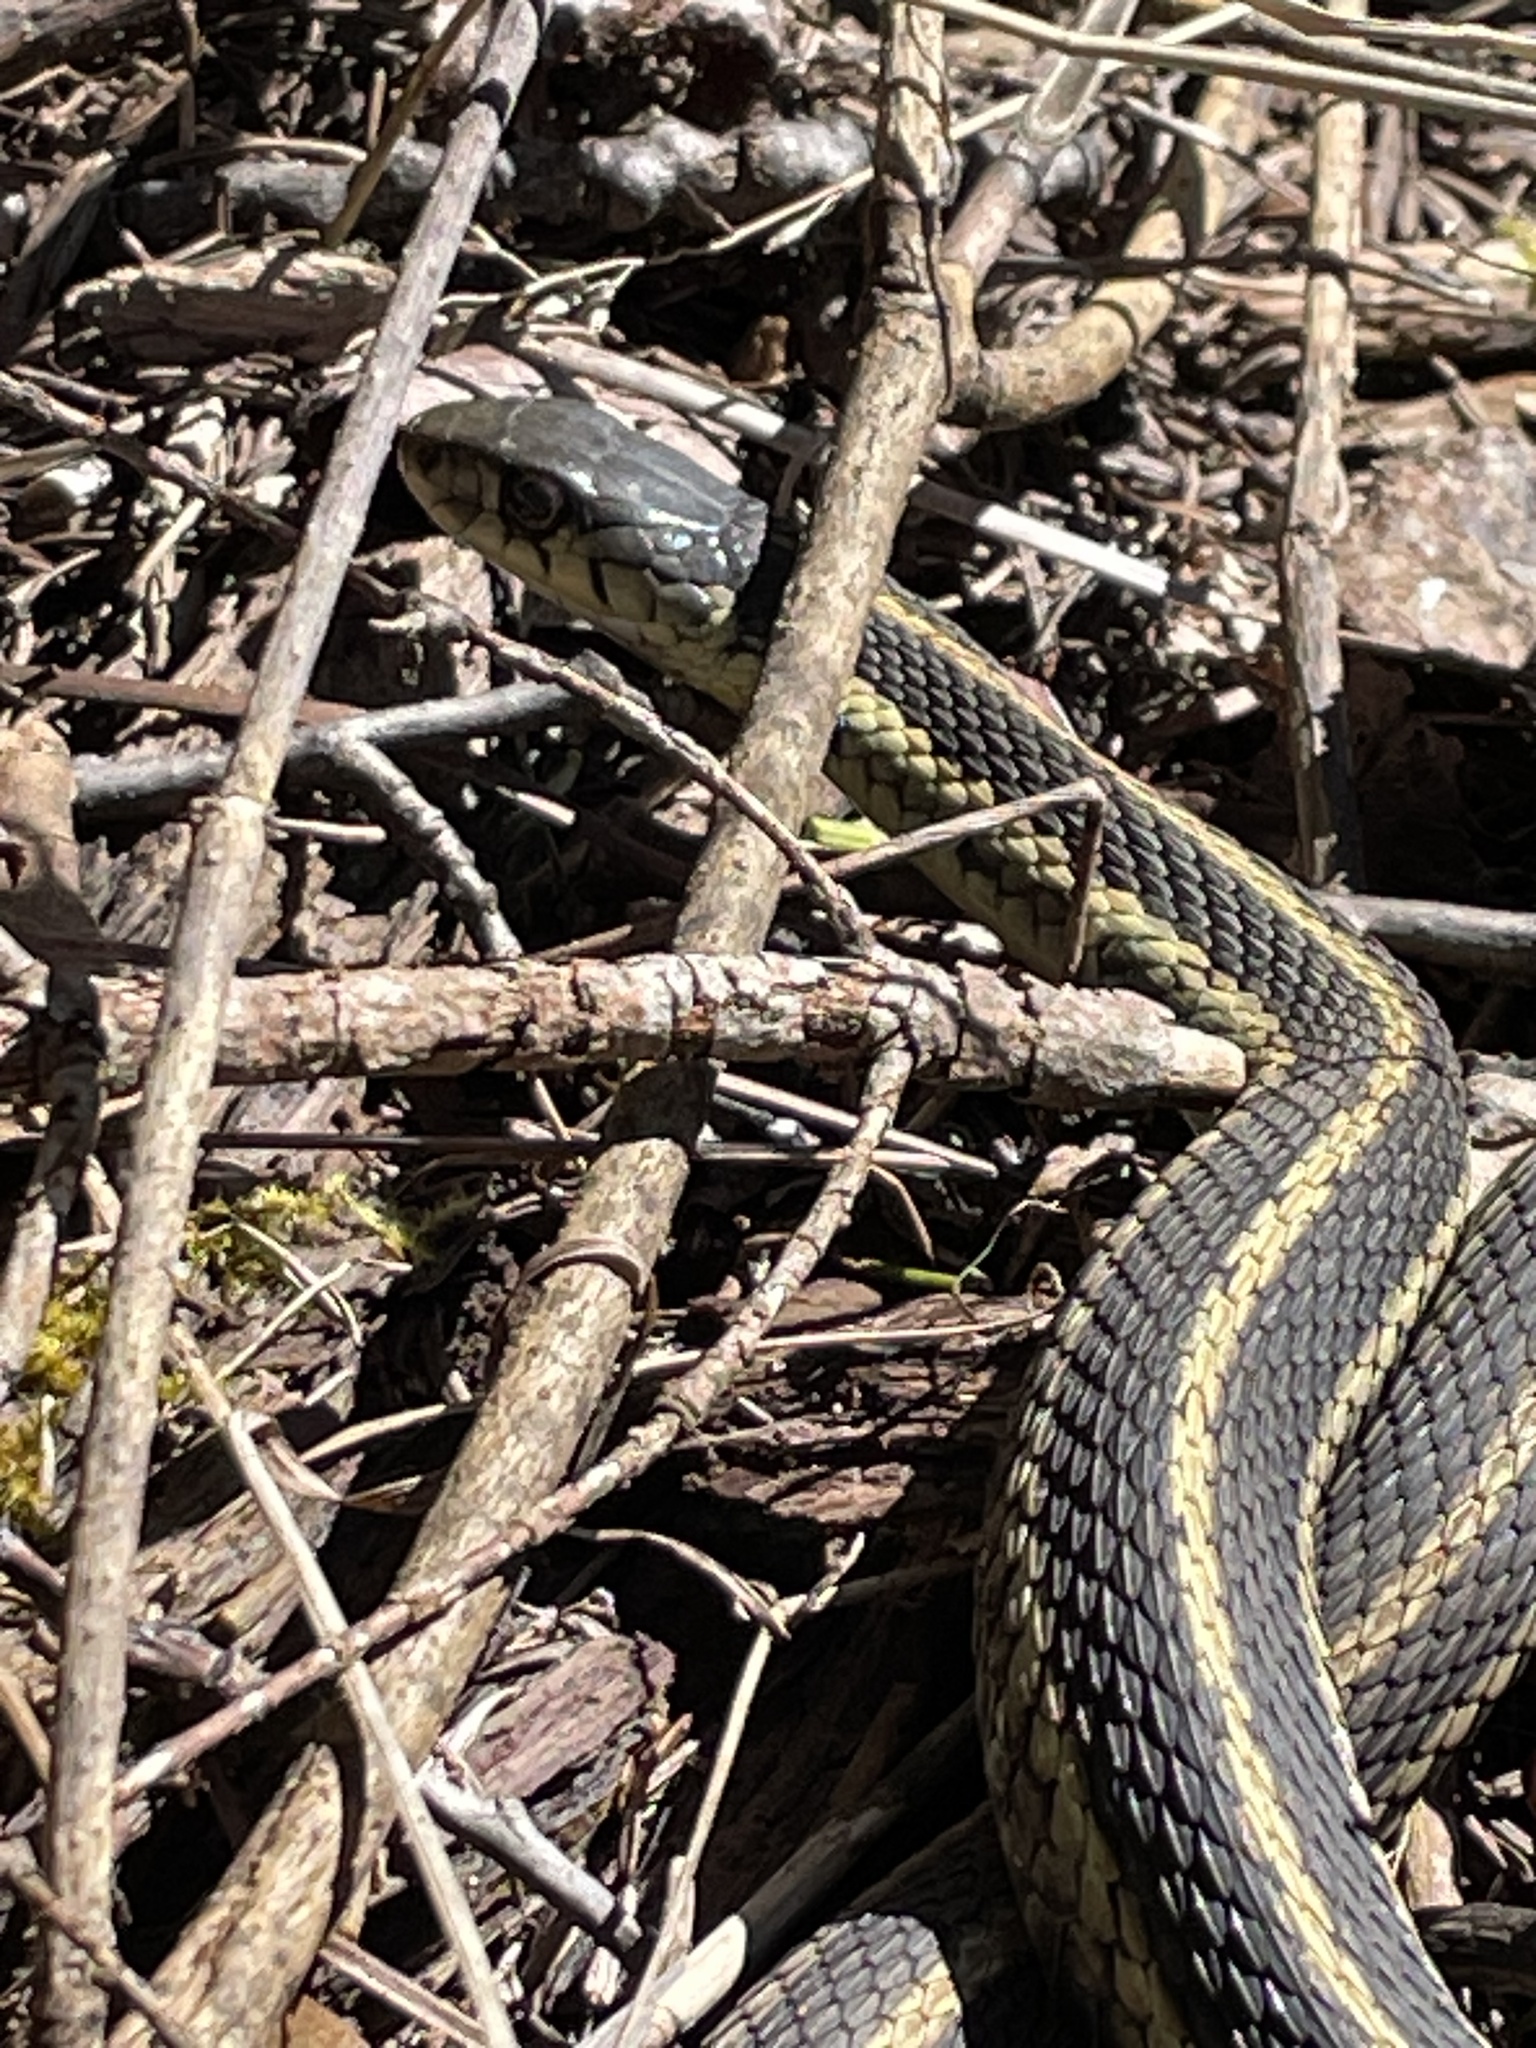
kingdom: Animalia
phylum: Chordata
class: Squamata
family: Colubridae
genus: Thamnophis
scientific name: Thamnophis sirtalis
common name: Common garter snake
